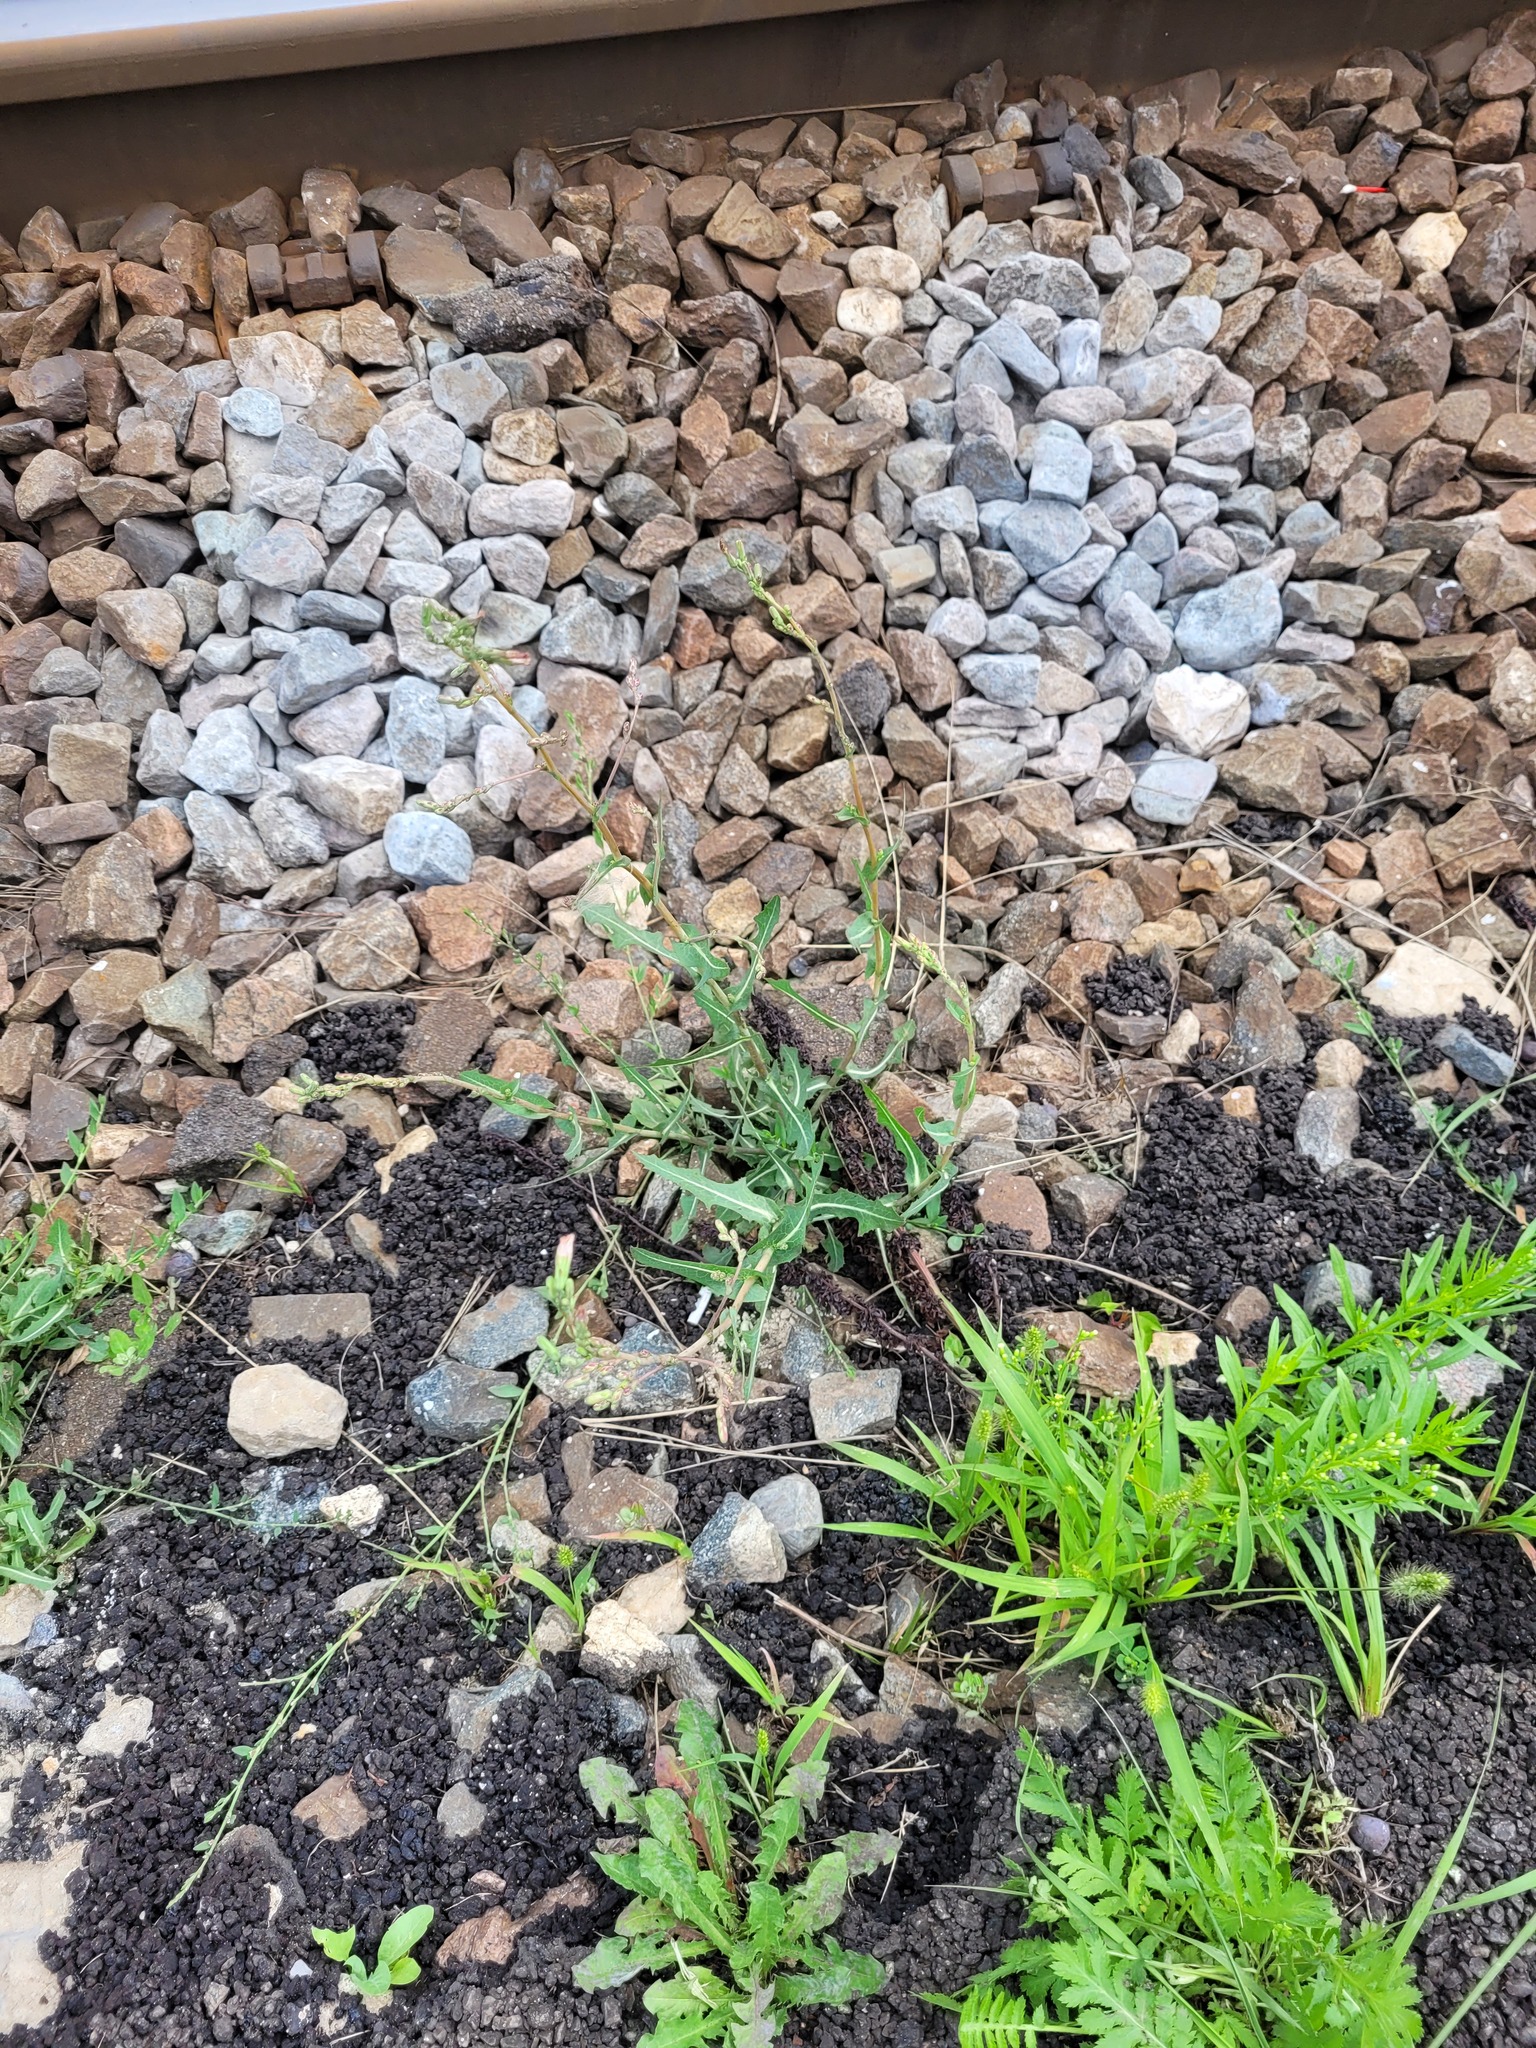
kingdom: Plantae
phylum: Tracheophyta
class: Magnoliopsida
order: Asterales
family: Asteraceae
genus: Lactuca
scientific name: Lactuca serriola
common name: Prickly lettuce
